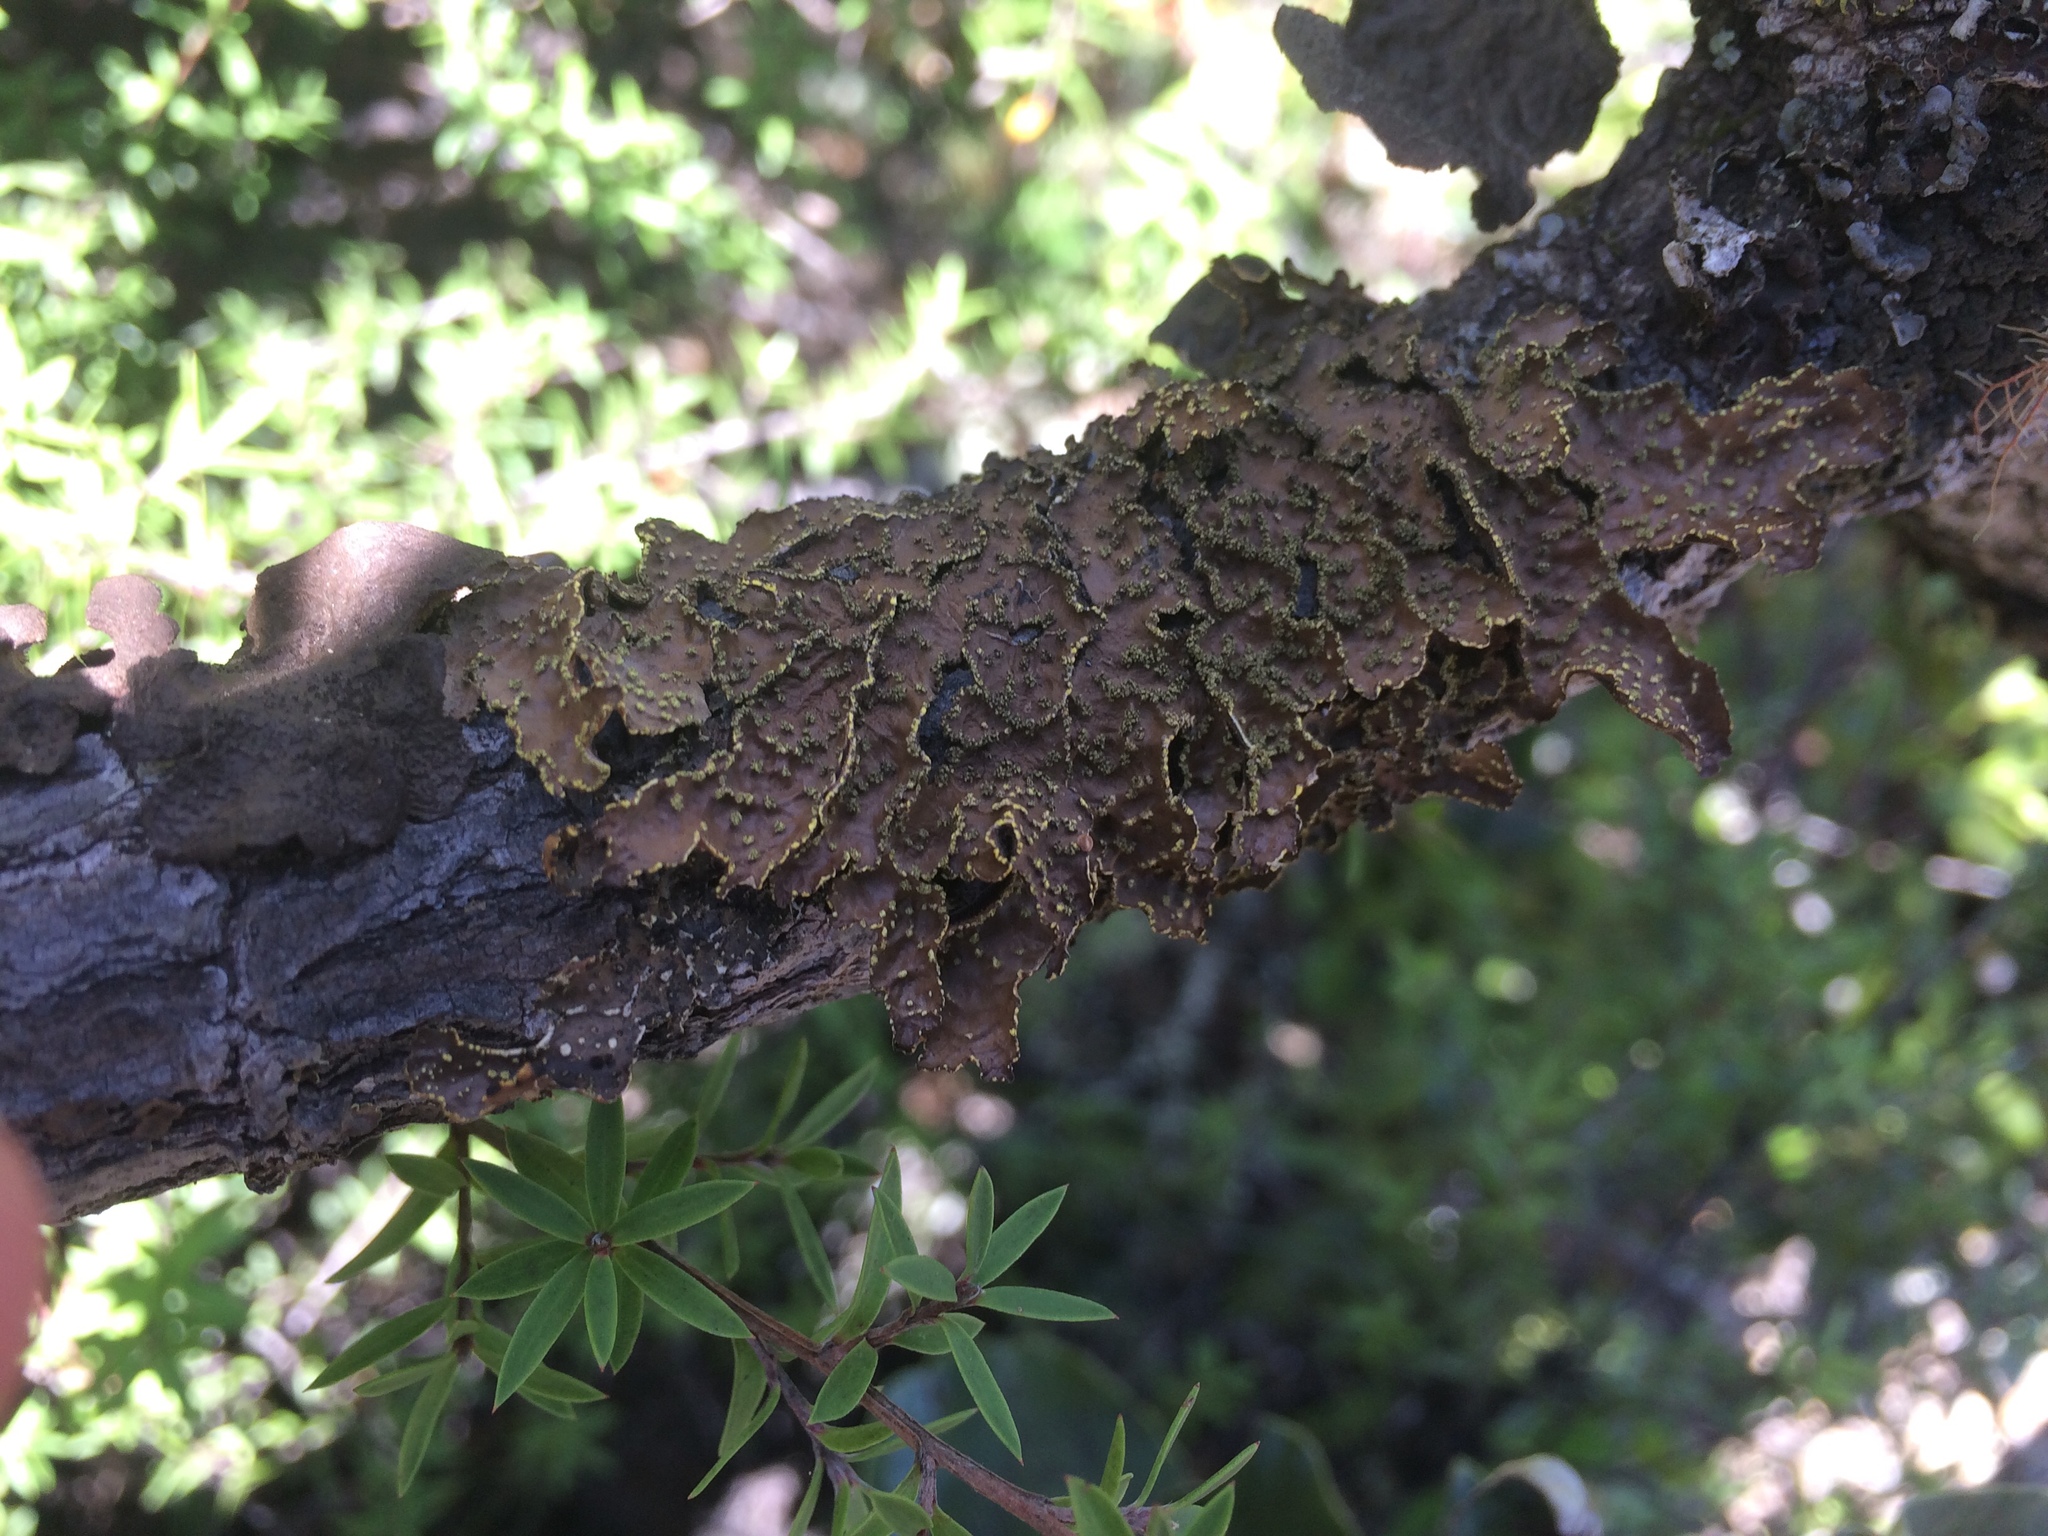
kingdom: Fungi
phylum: Ascomycota
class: Lecanoromycetes
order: Peltigerales
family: Lobariaceae
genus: Pseudocyphellaria
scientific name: Pseudocyphellaria crocata
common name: Golden specklebelly
